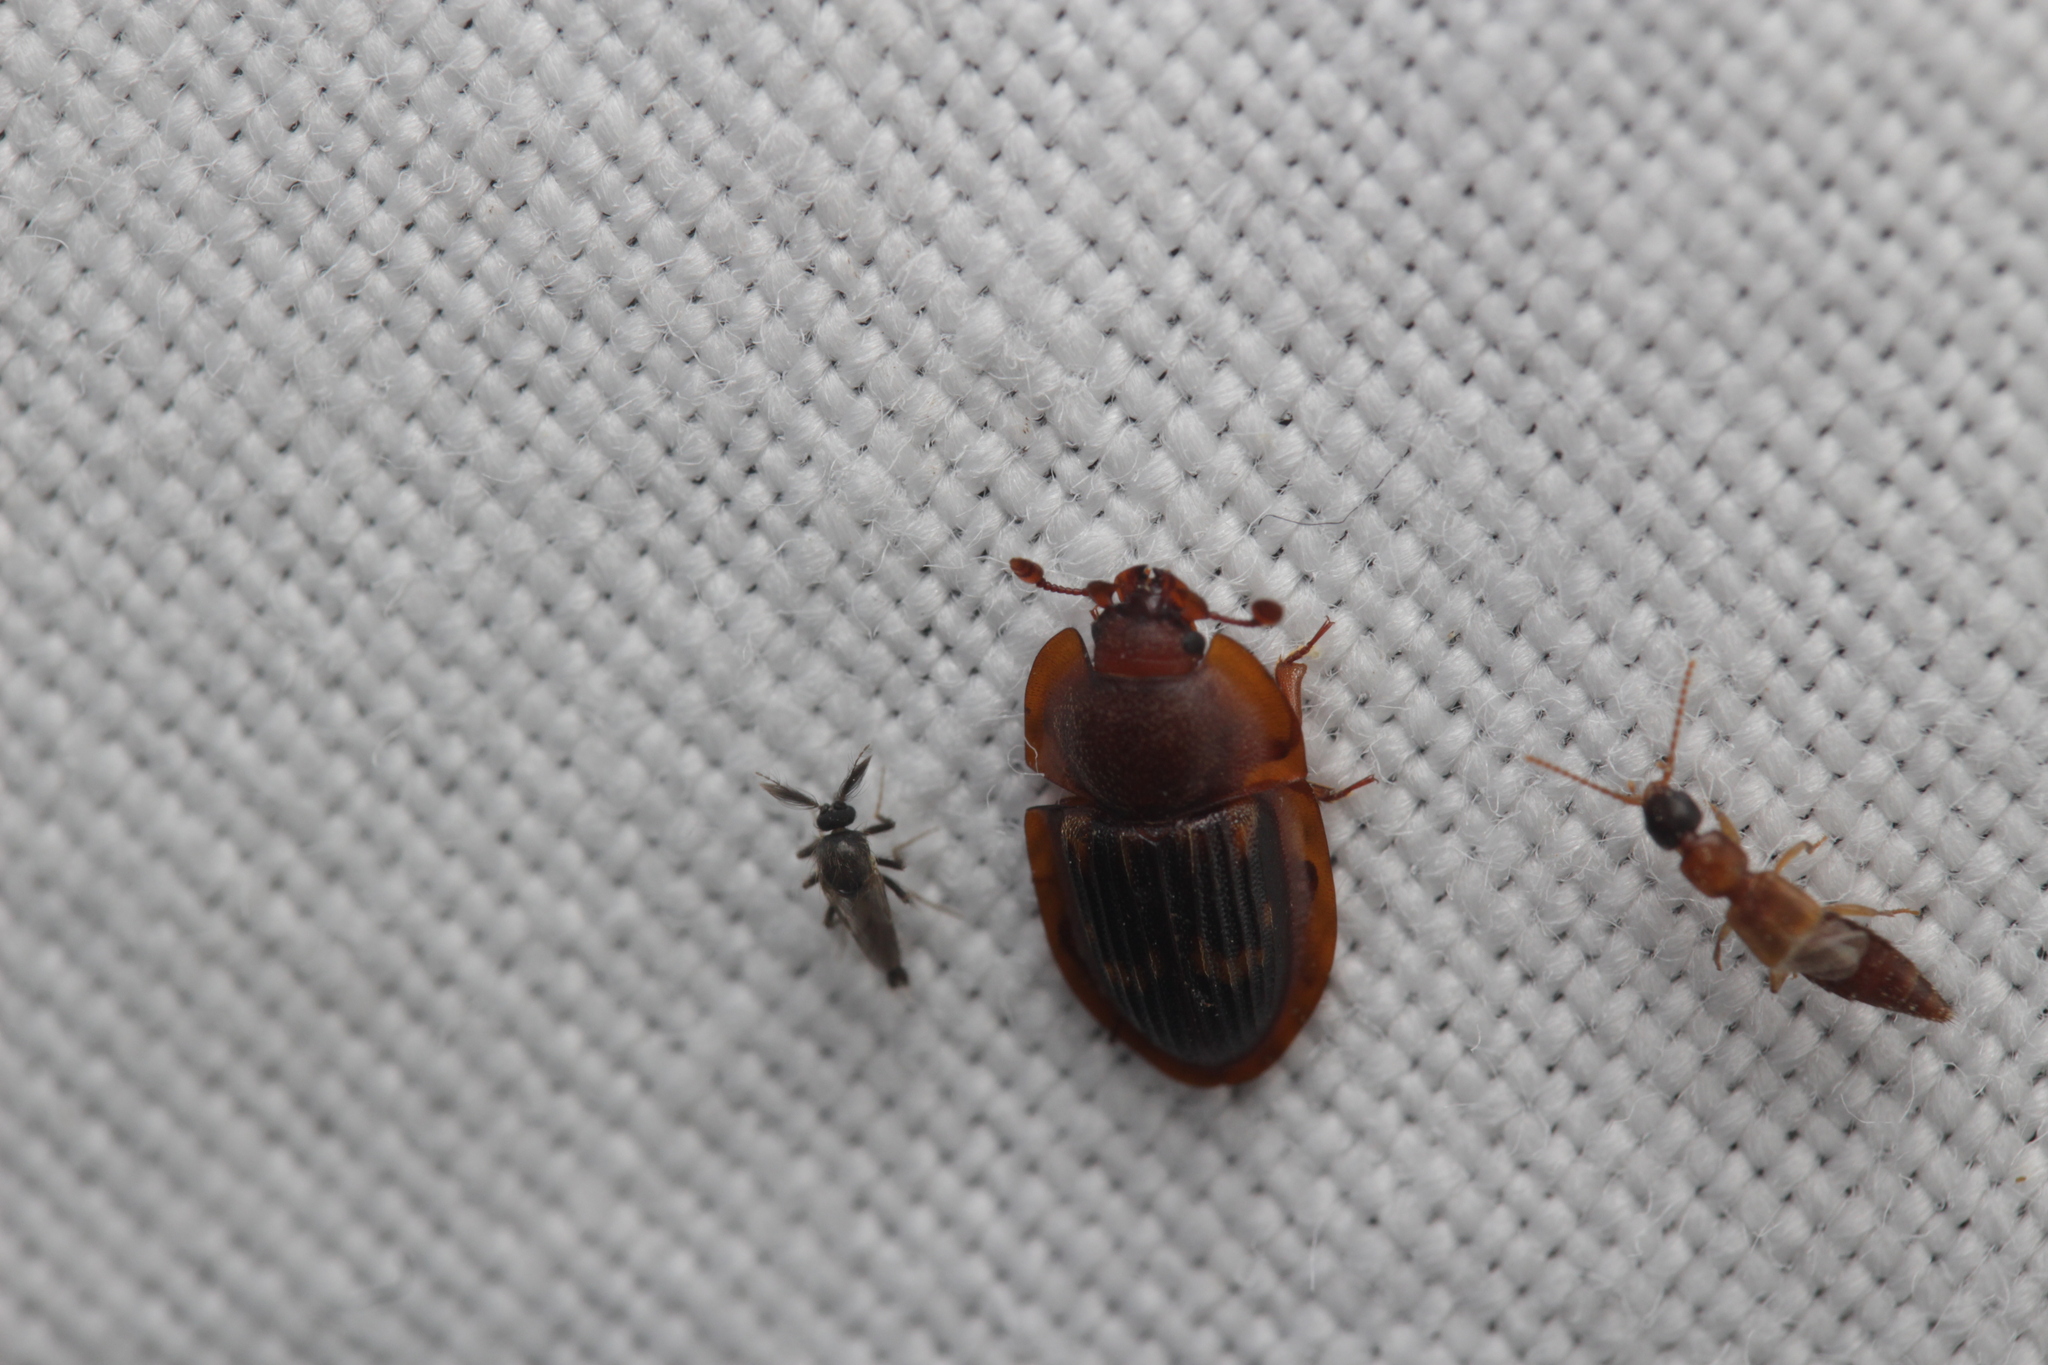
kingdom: Animalia
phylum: Arthropoda
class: Insecta
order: Coleoptera
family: Nitidulidae
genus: Amphotis
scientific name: Amphotis marginata
